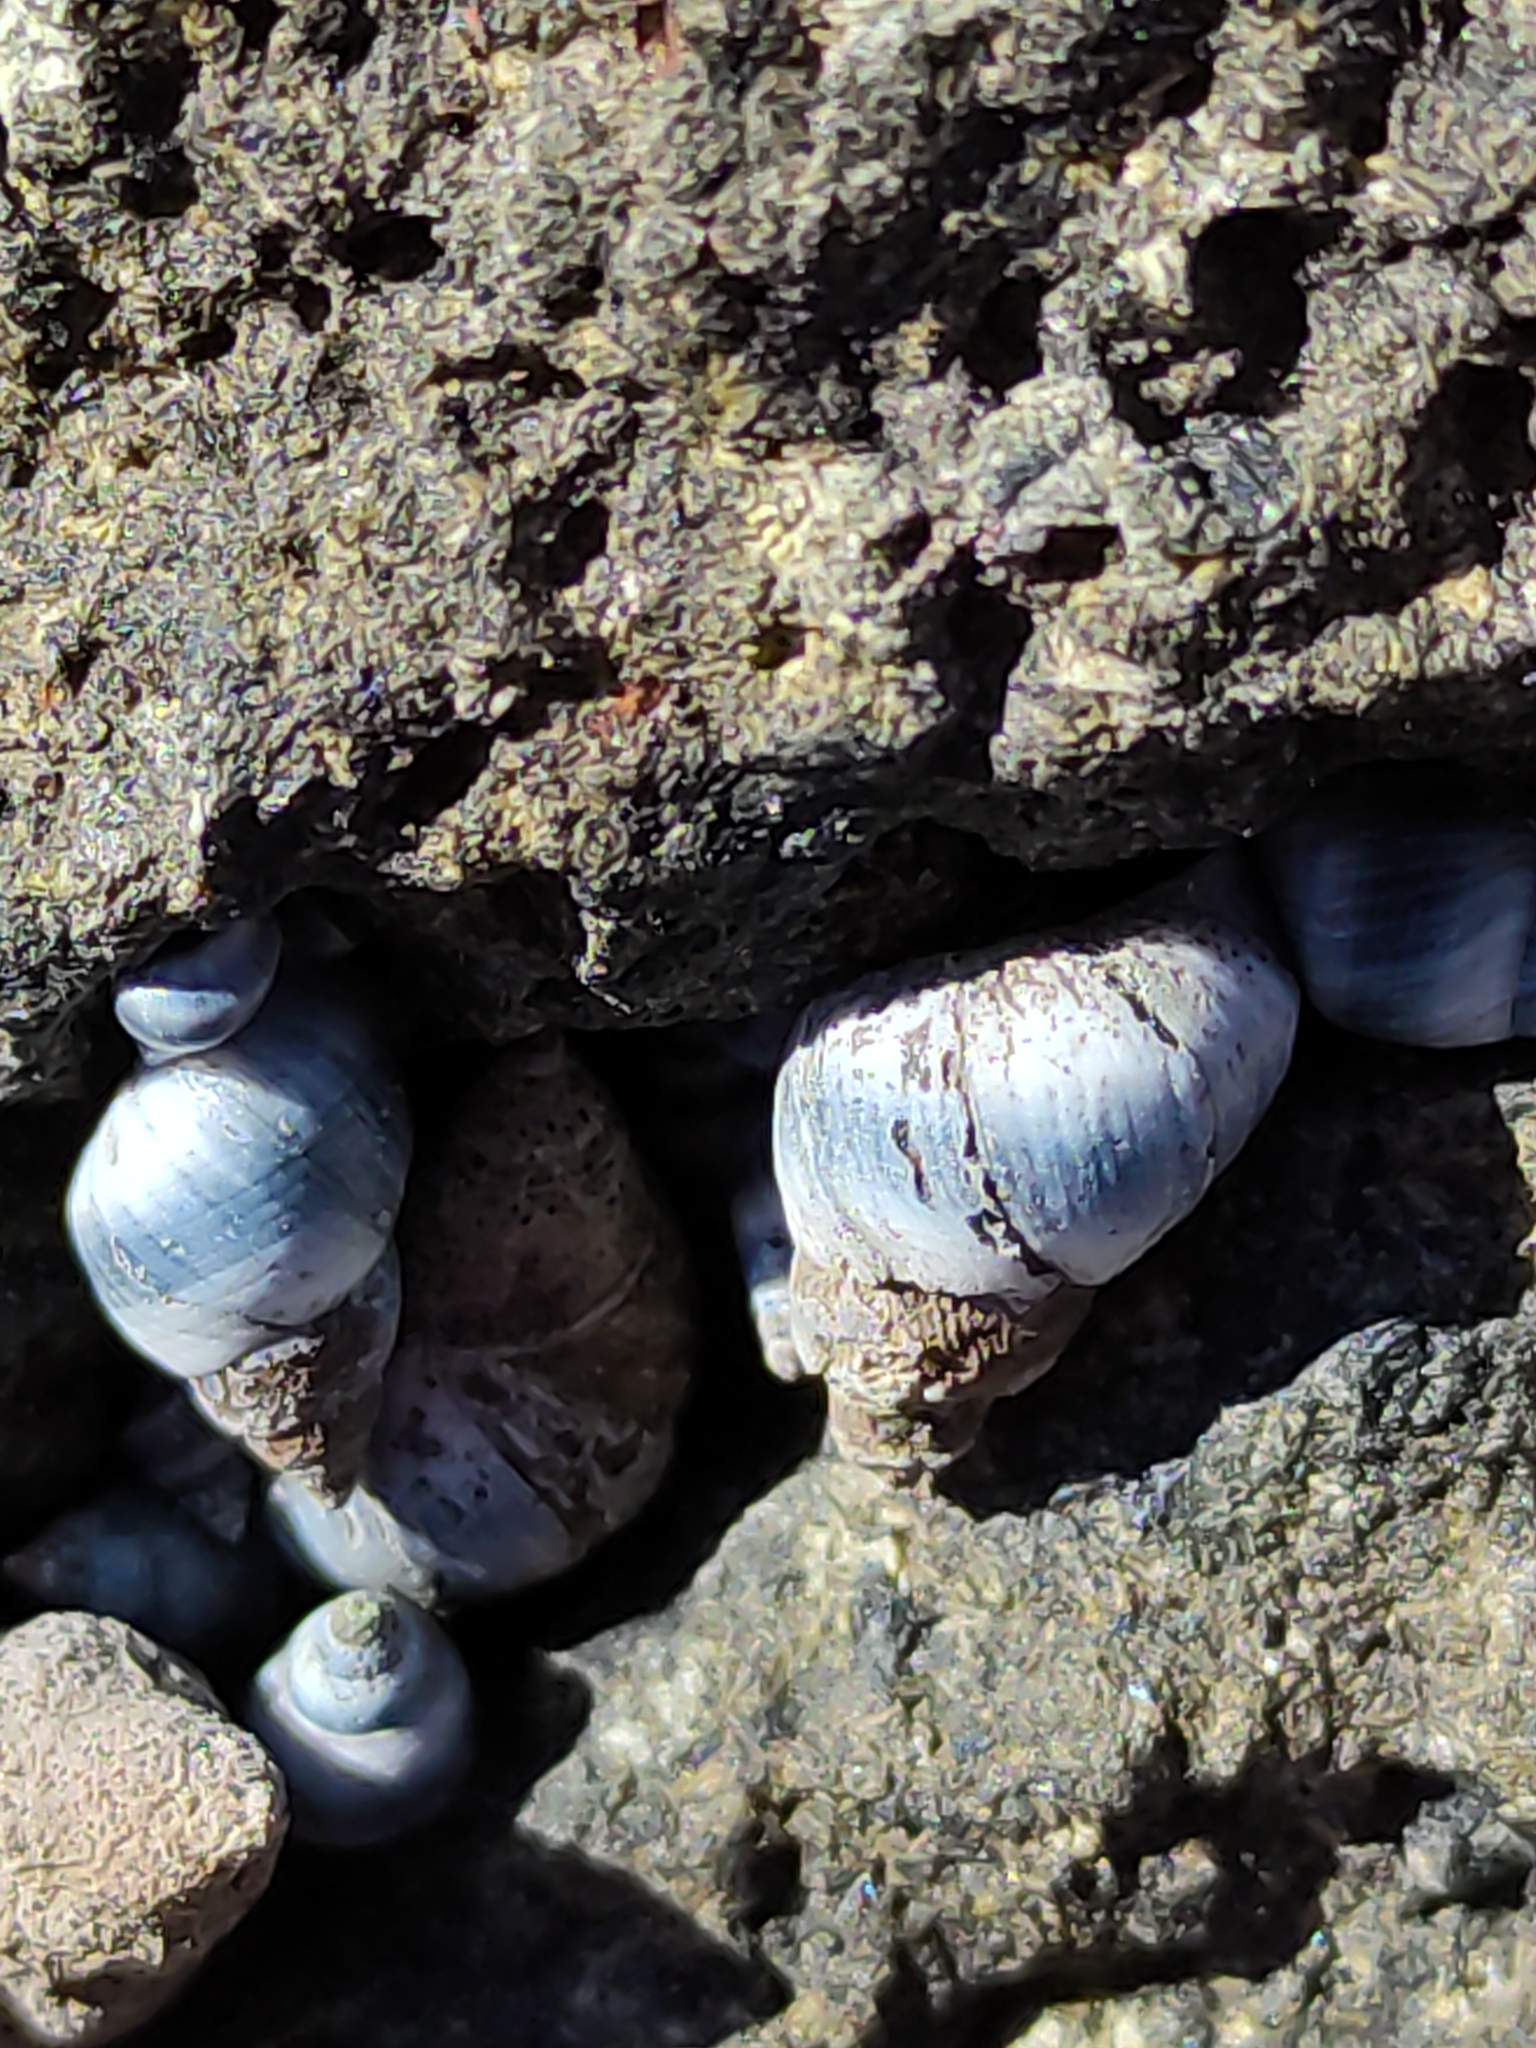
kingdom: Animalia
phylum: Mollusca
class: Gastropoda
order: Littorinimorpha
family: Littorinidae
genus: Austrolittorina
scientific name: Austrolittorina antipodum
